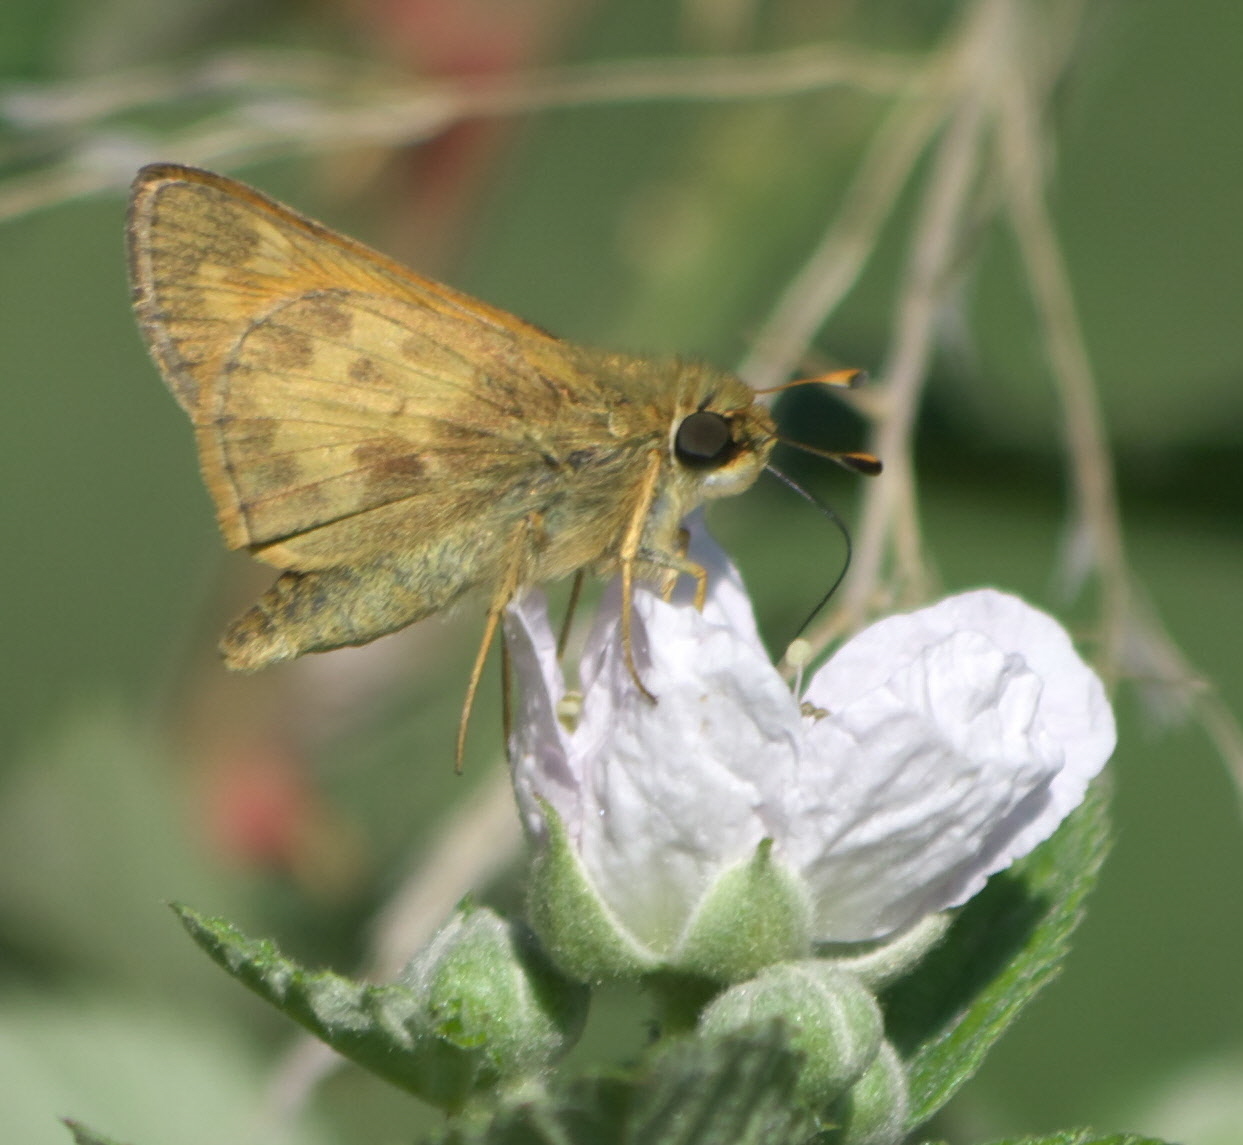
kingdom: Animalia
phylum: Arthropoda
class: Insecta
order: Lepidoptera
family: Hesperiidae
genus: Atalopedes
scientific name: Atalopedes
